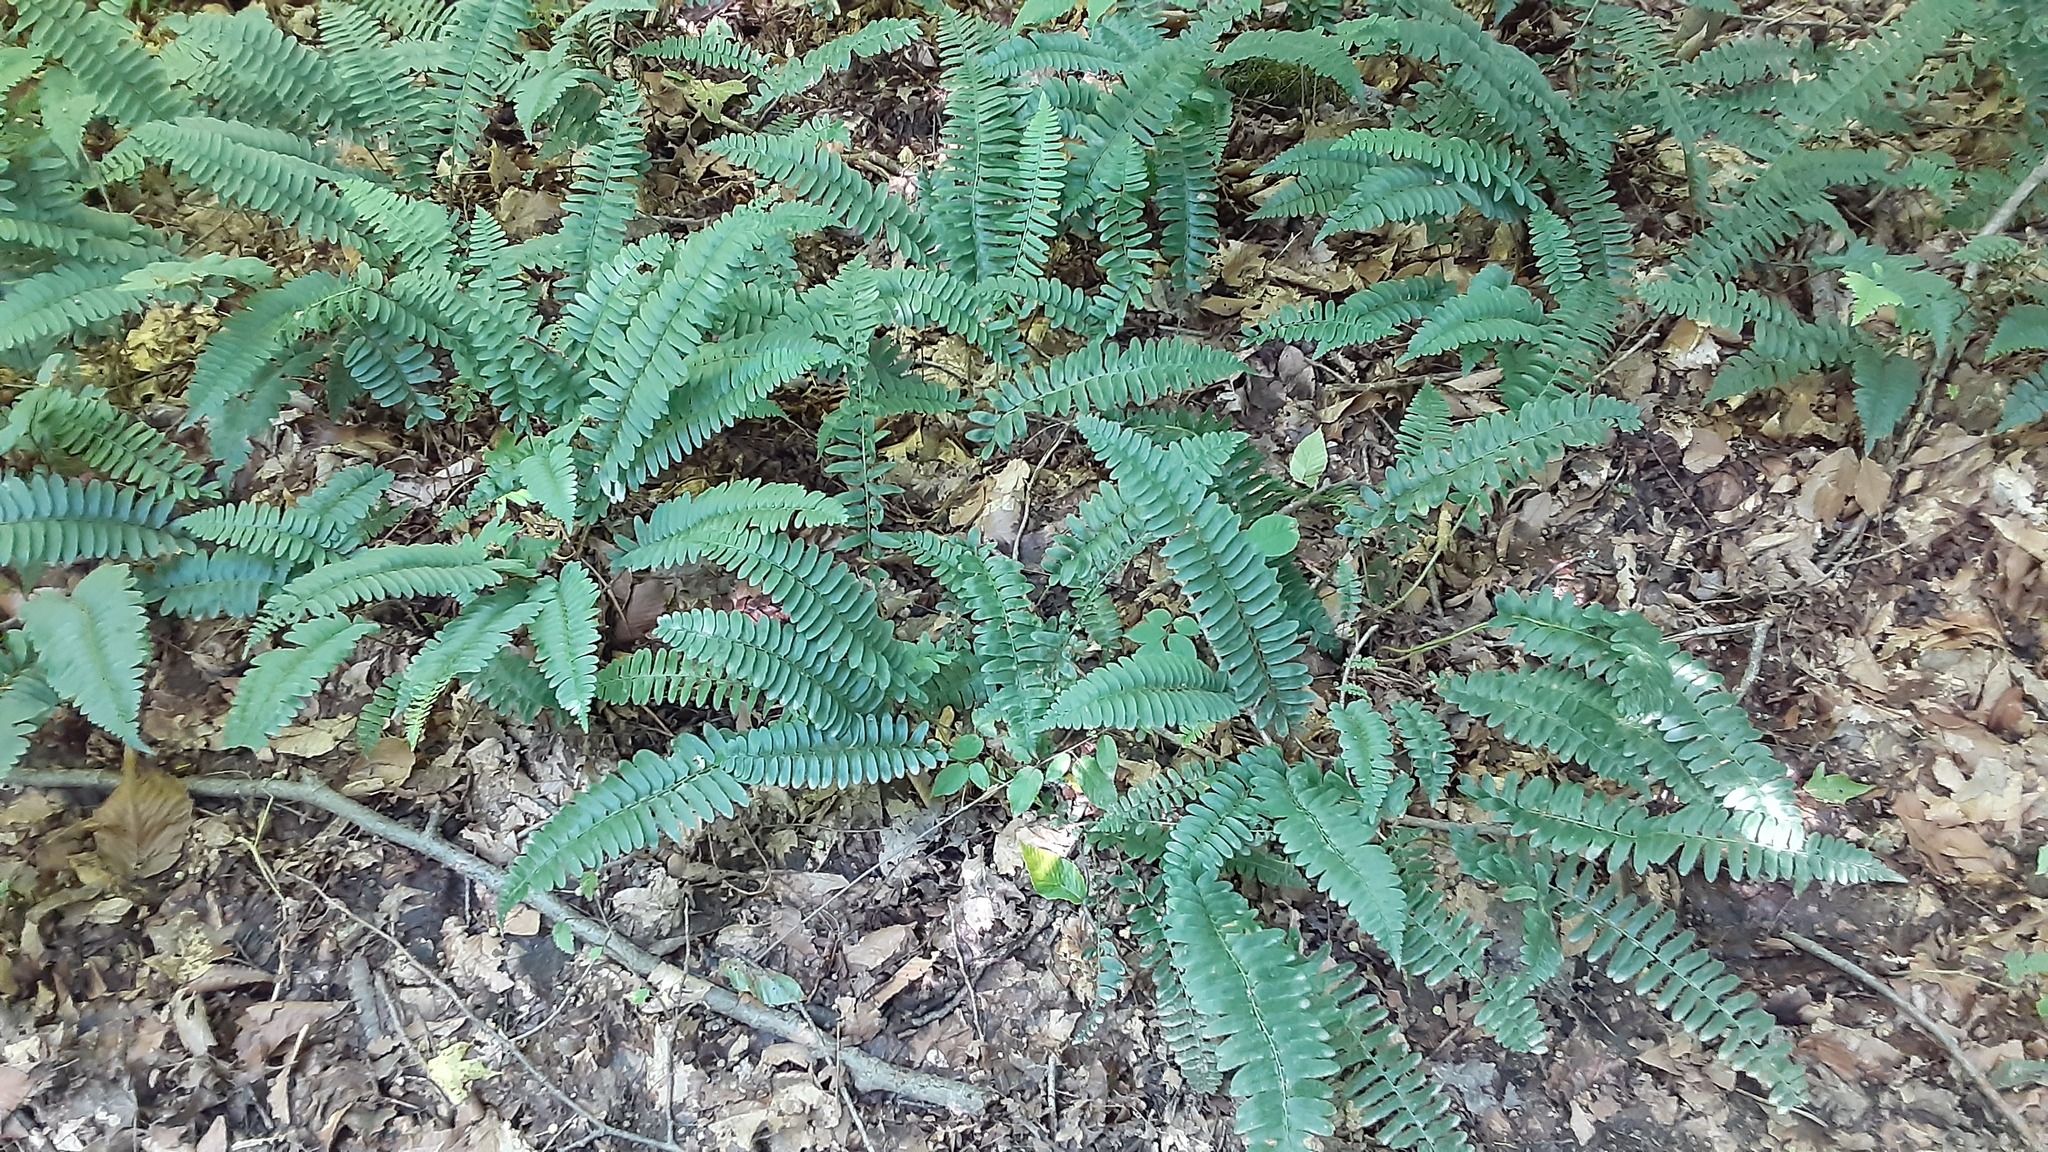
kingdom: Plantae
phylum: Tracheophyta
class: Polypodiopsida
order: Polypodiales
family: Dryopteridaceae
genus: Polystichum
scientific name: Polystichum acrostichoides
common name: Christmas fern
